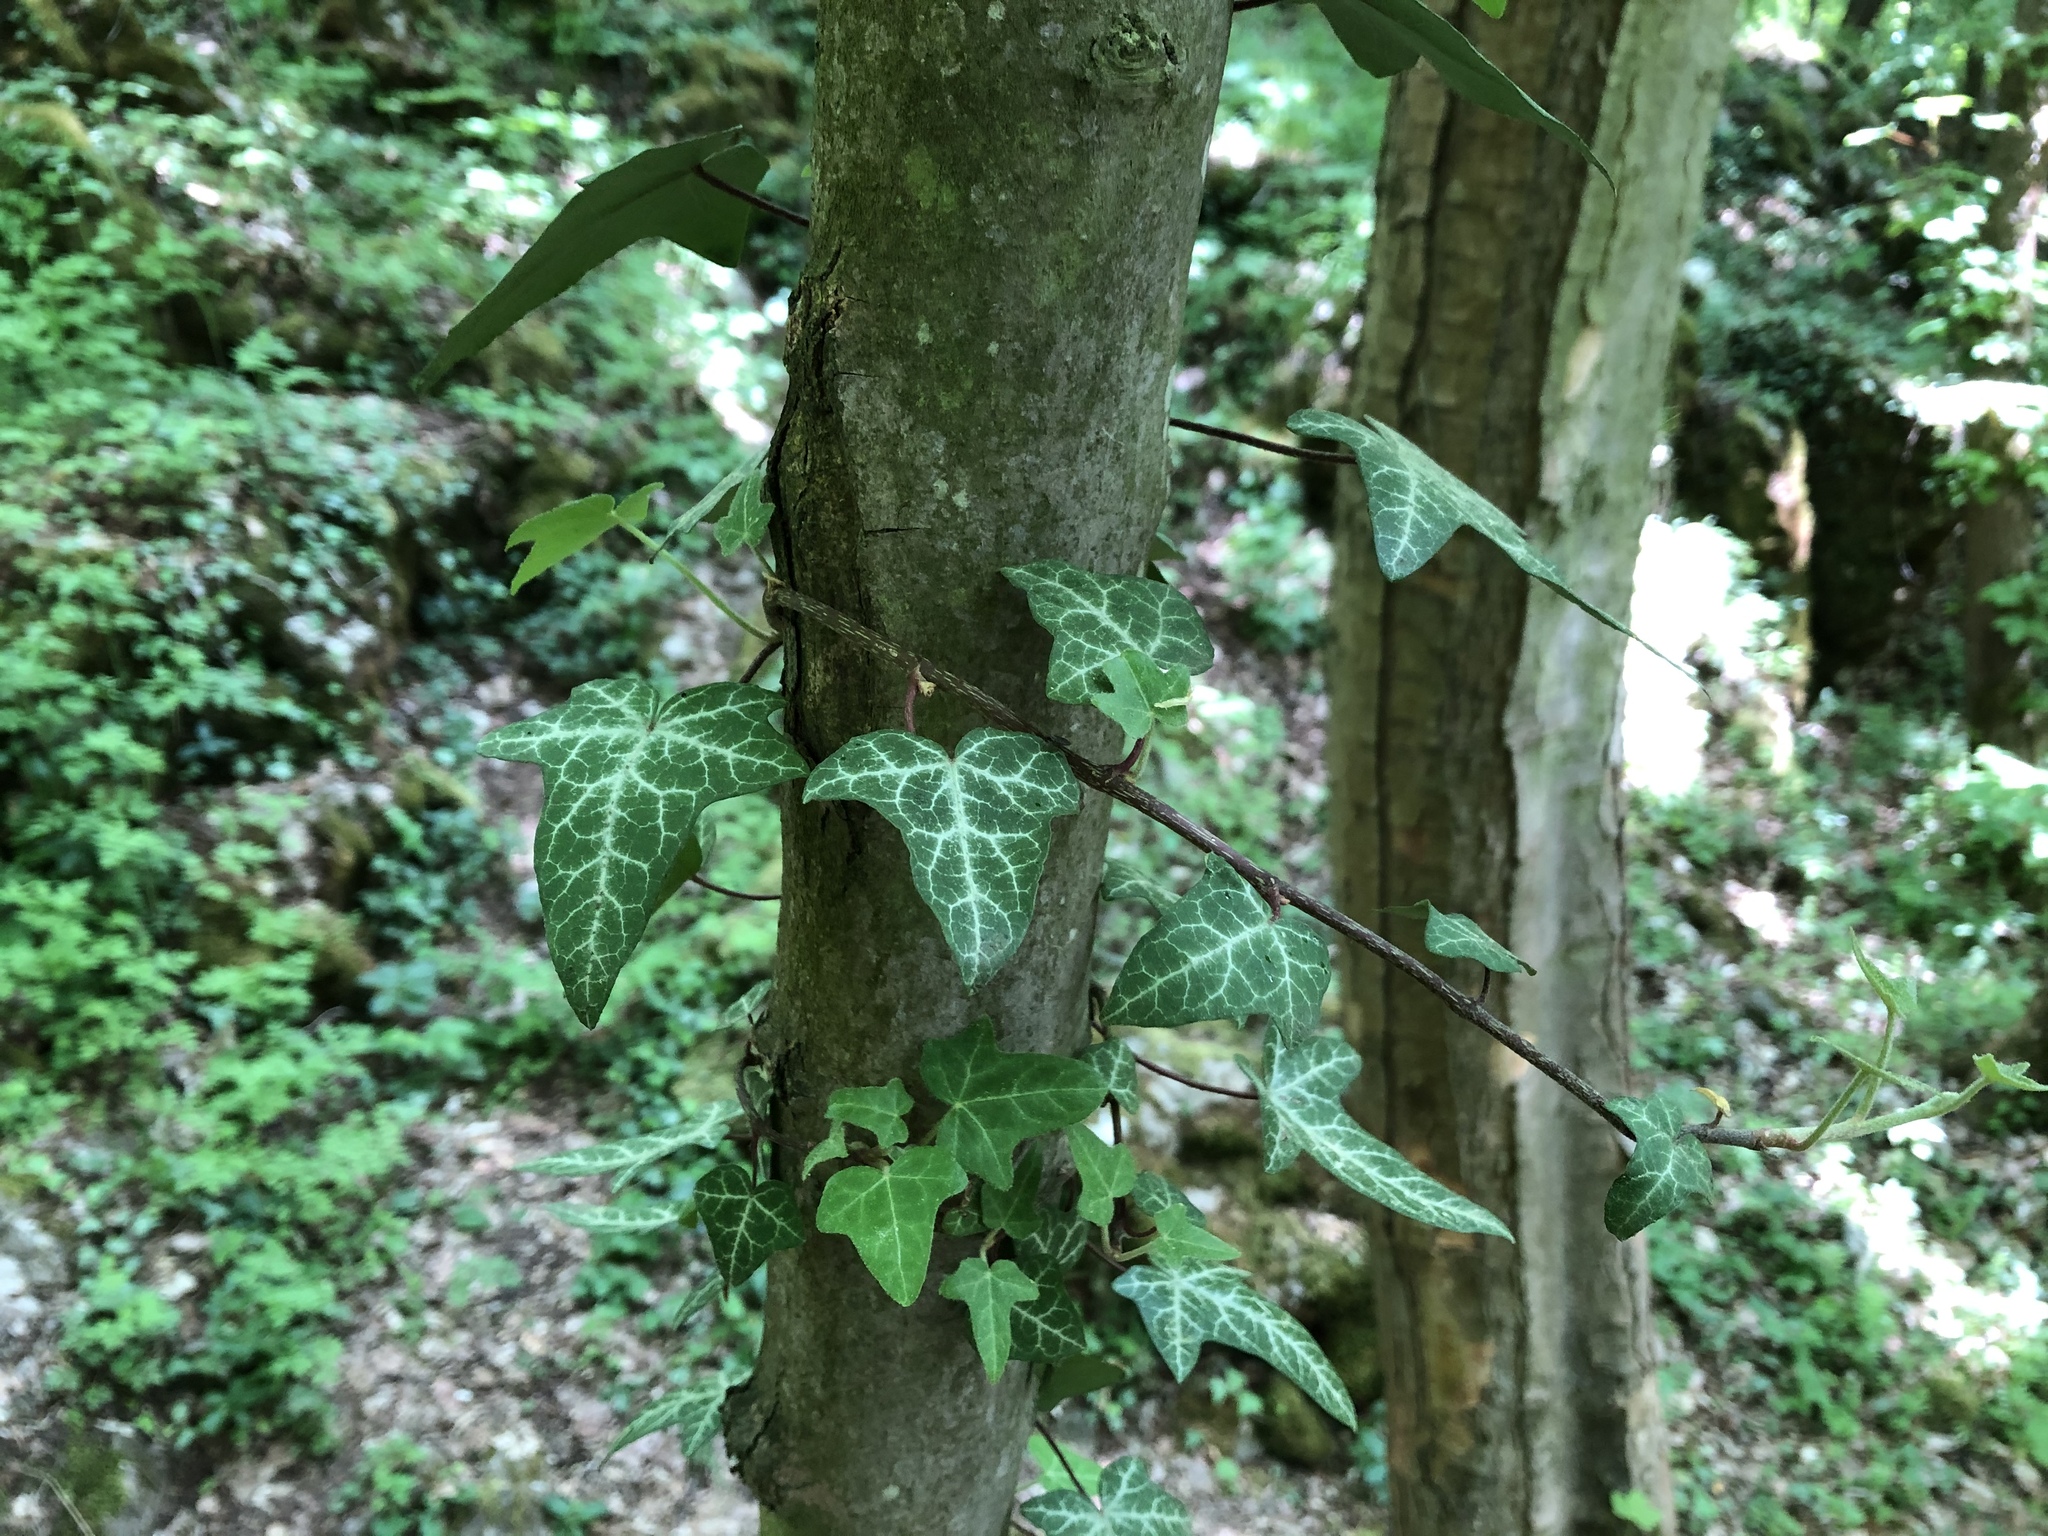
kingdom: Plantae
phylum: Tracheophyta
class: Magnoliopsida
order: Apiales
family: Araliaceae
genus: Hedera
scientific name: Hedera helix
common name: Ivy
